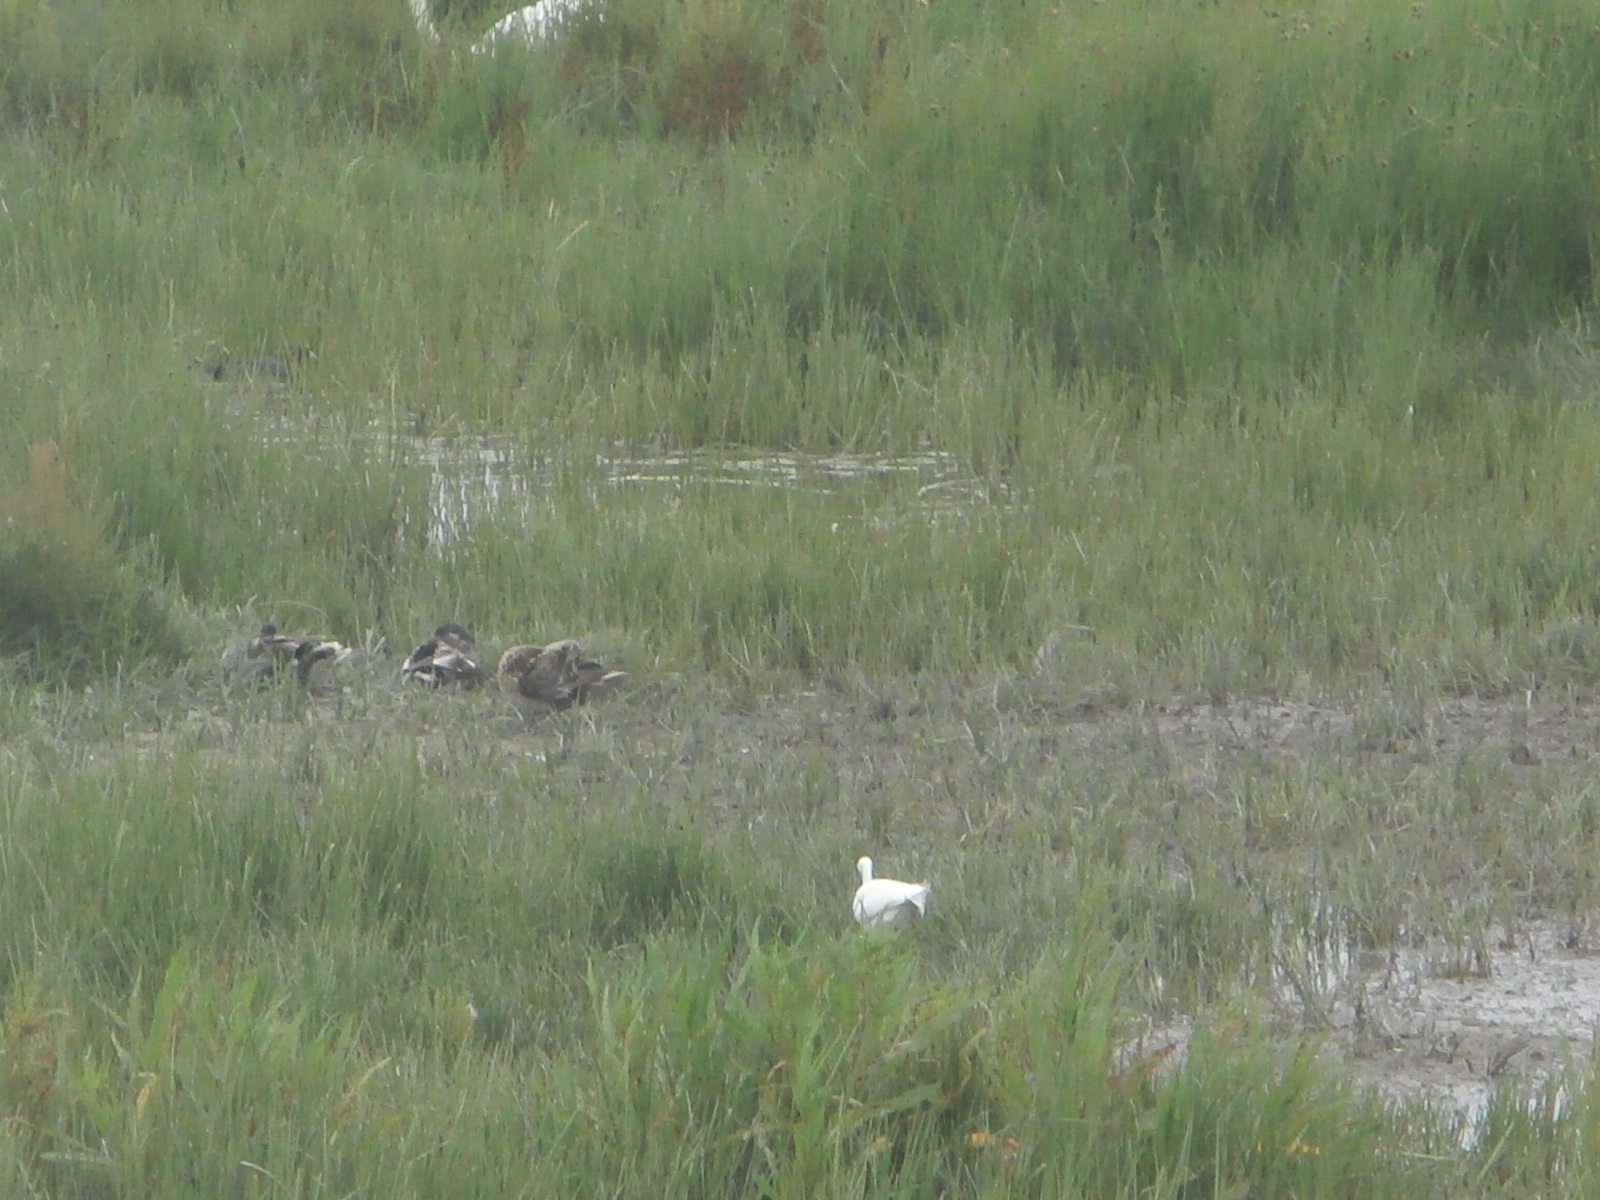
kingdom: Animalia
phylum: Chordata
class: Aves
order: Gruiformes
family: Rallidae
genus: Fulica
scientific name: Fulica atra
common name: Eurasian coot
